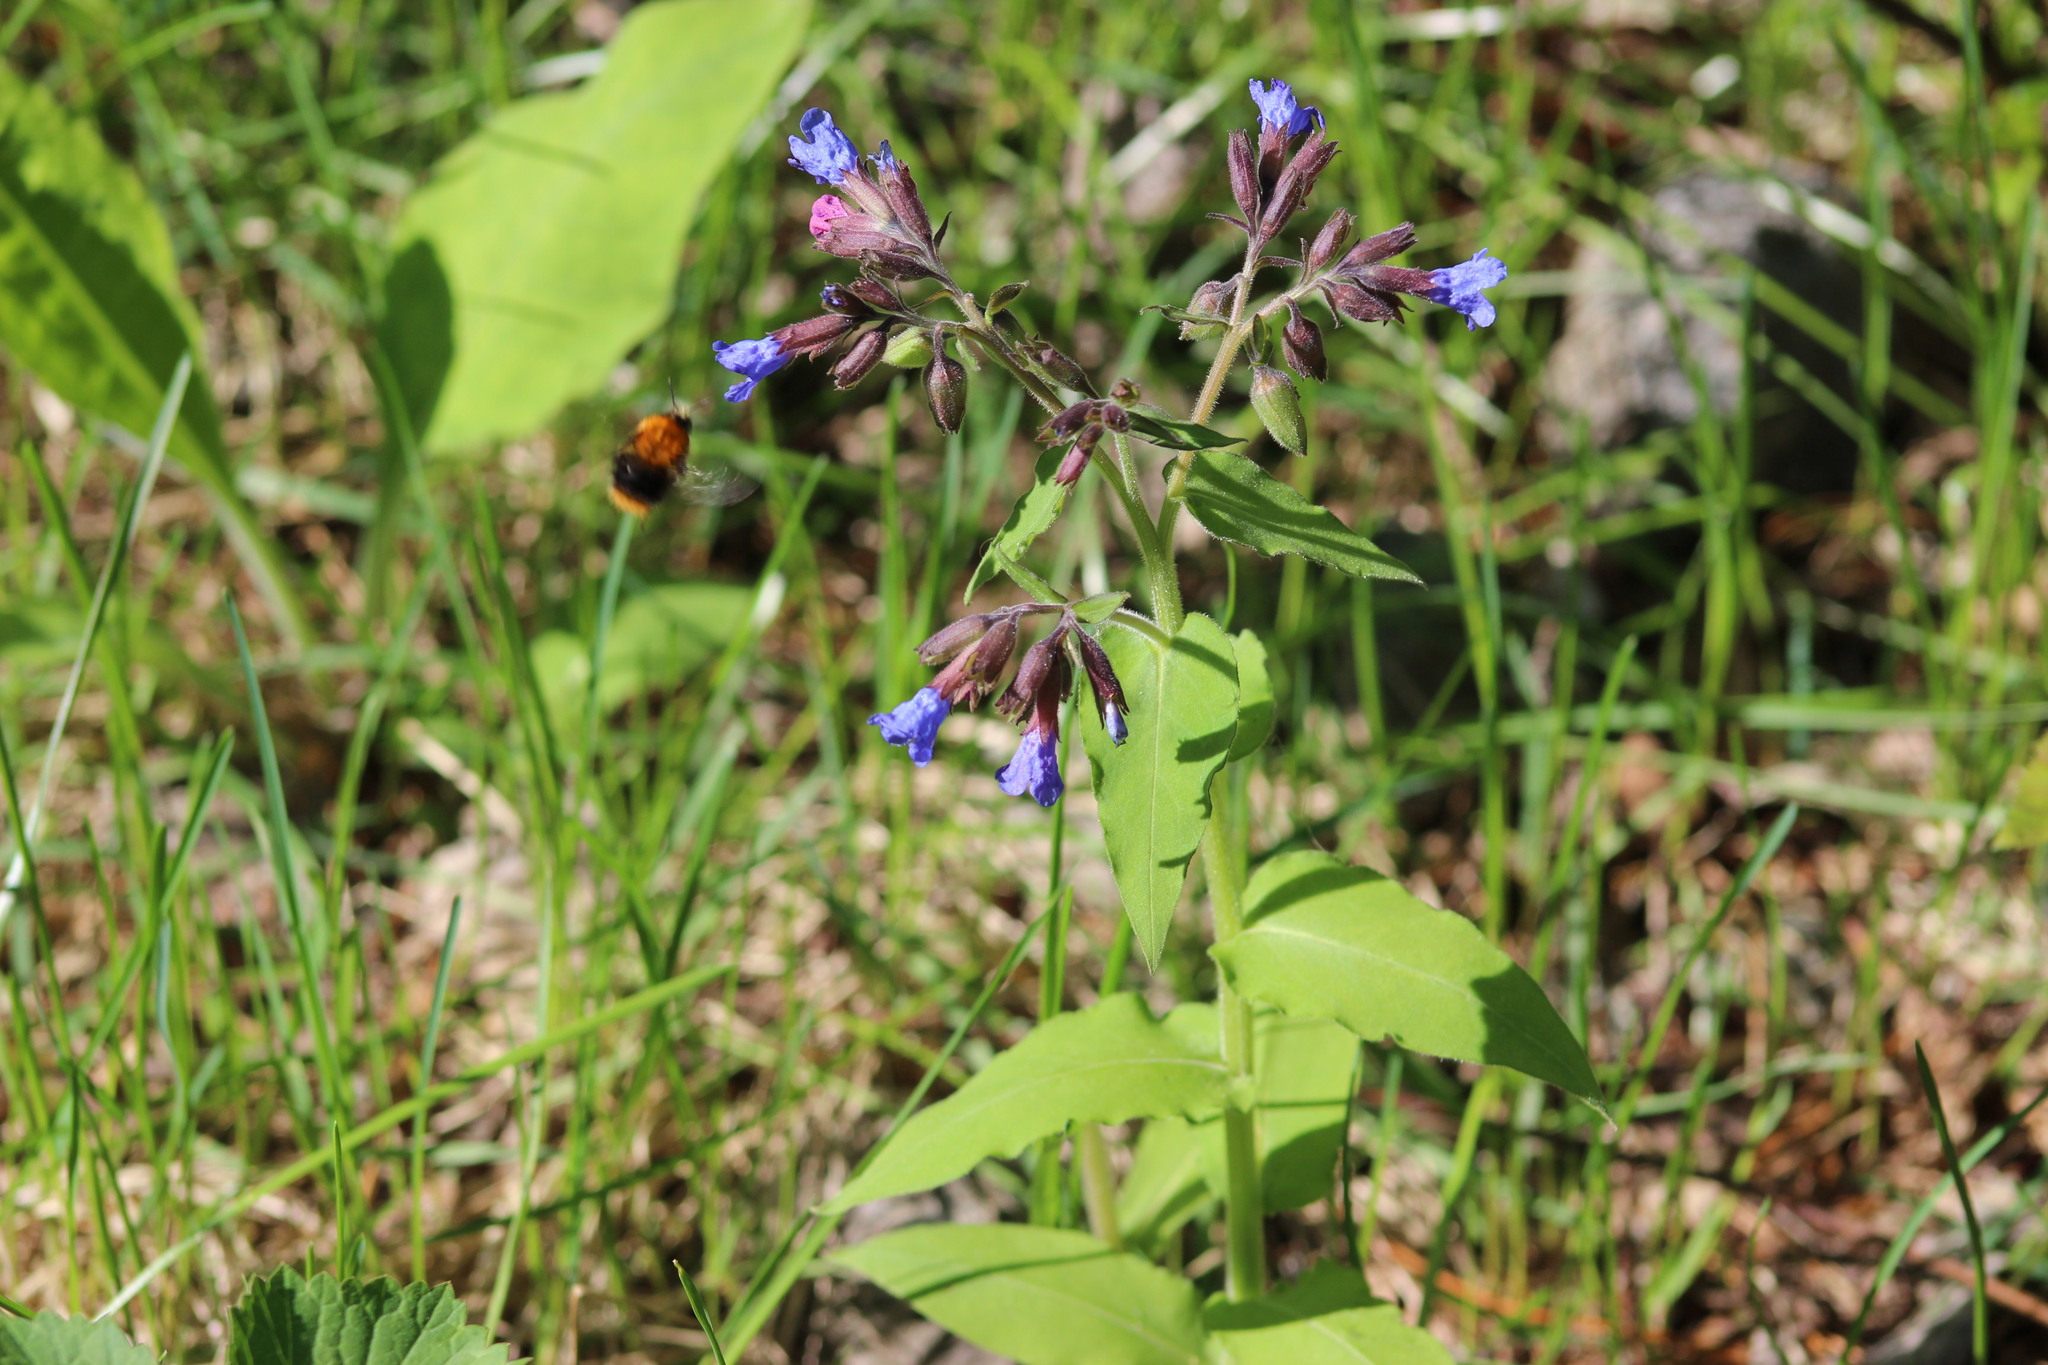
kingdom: Plantae
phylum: Tracheophyta
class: Magnoliopsida
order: Boraginales
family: Boraginaceae
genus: Pulmonaria
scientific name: Pulmonaria mollis
